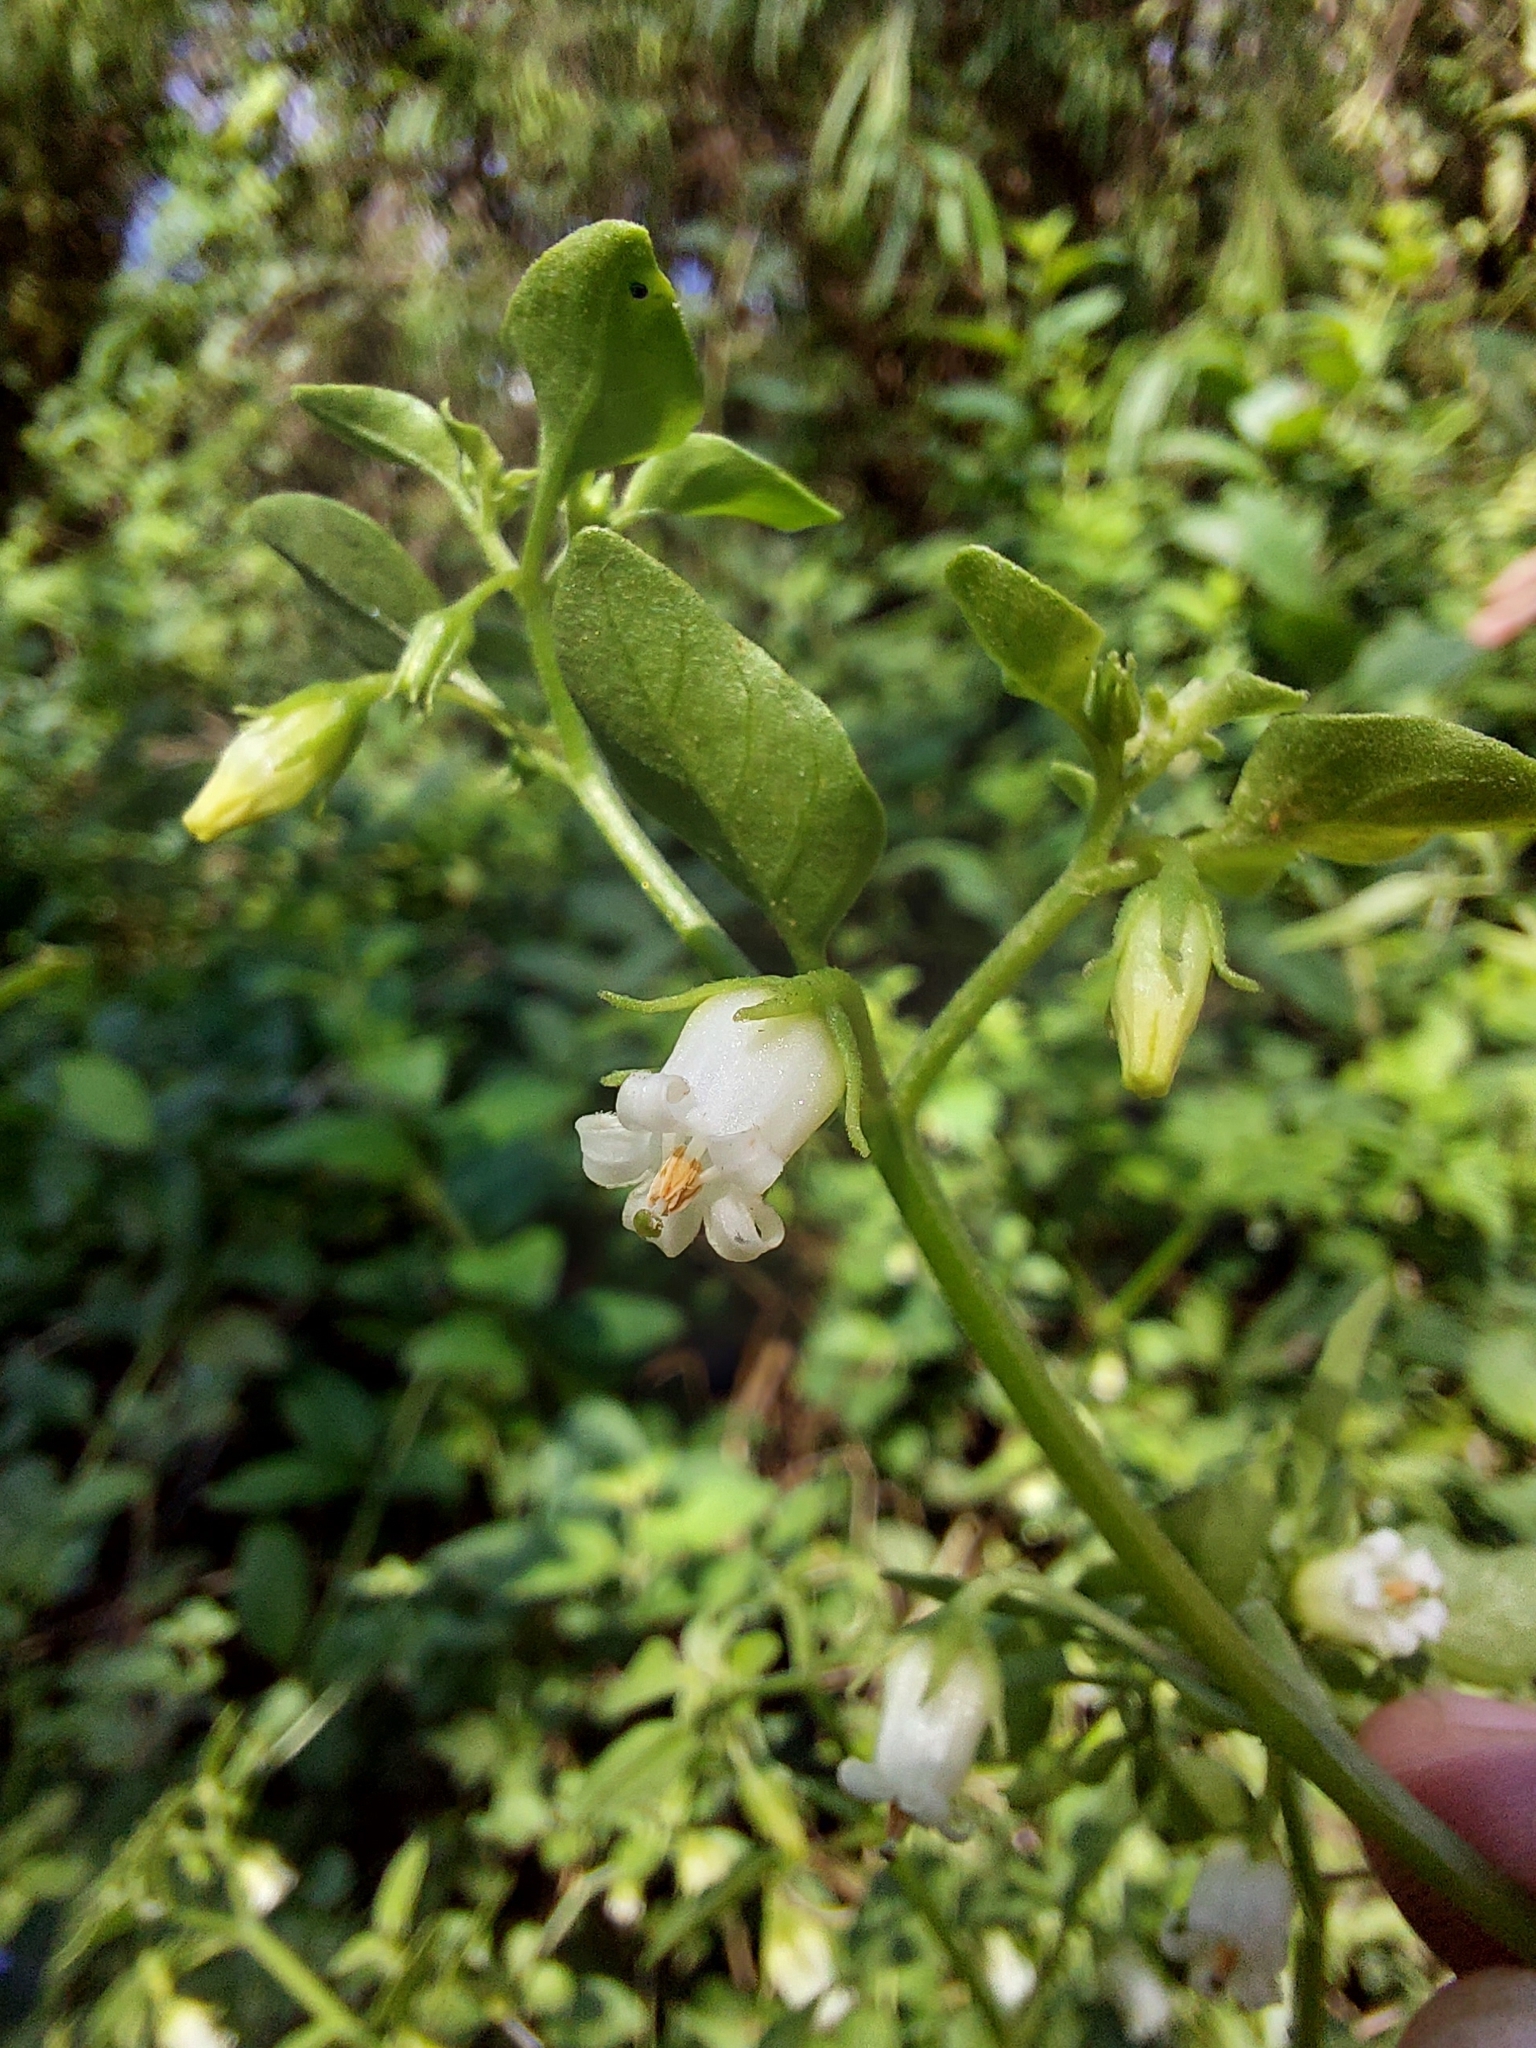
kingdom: Plantae
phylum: Tracheophyta
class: Magnoliopsida
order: Solanales
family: Solanaceae
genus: Salpichroa
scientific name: Salpichroa origanifolia
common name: Lily-of-the-valley-vine
